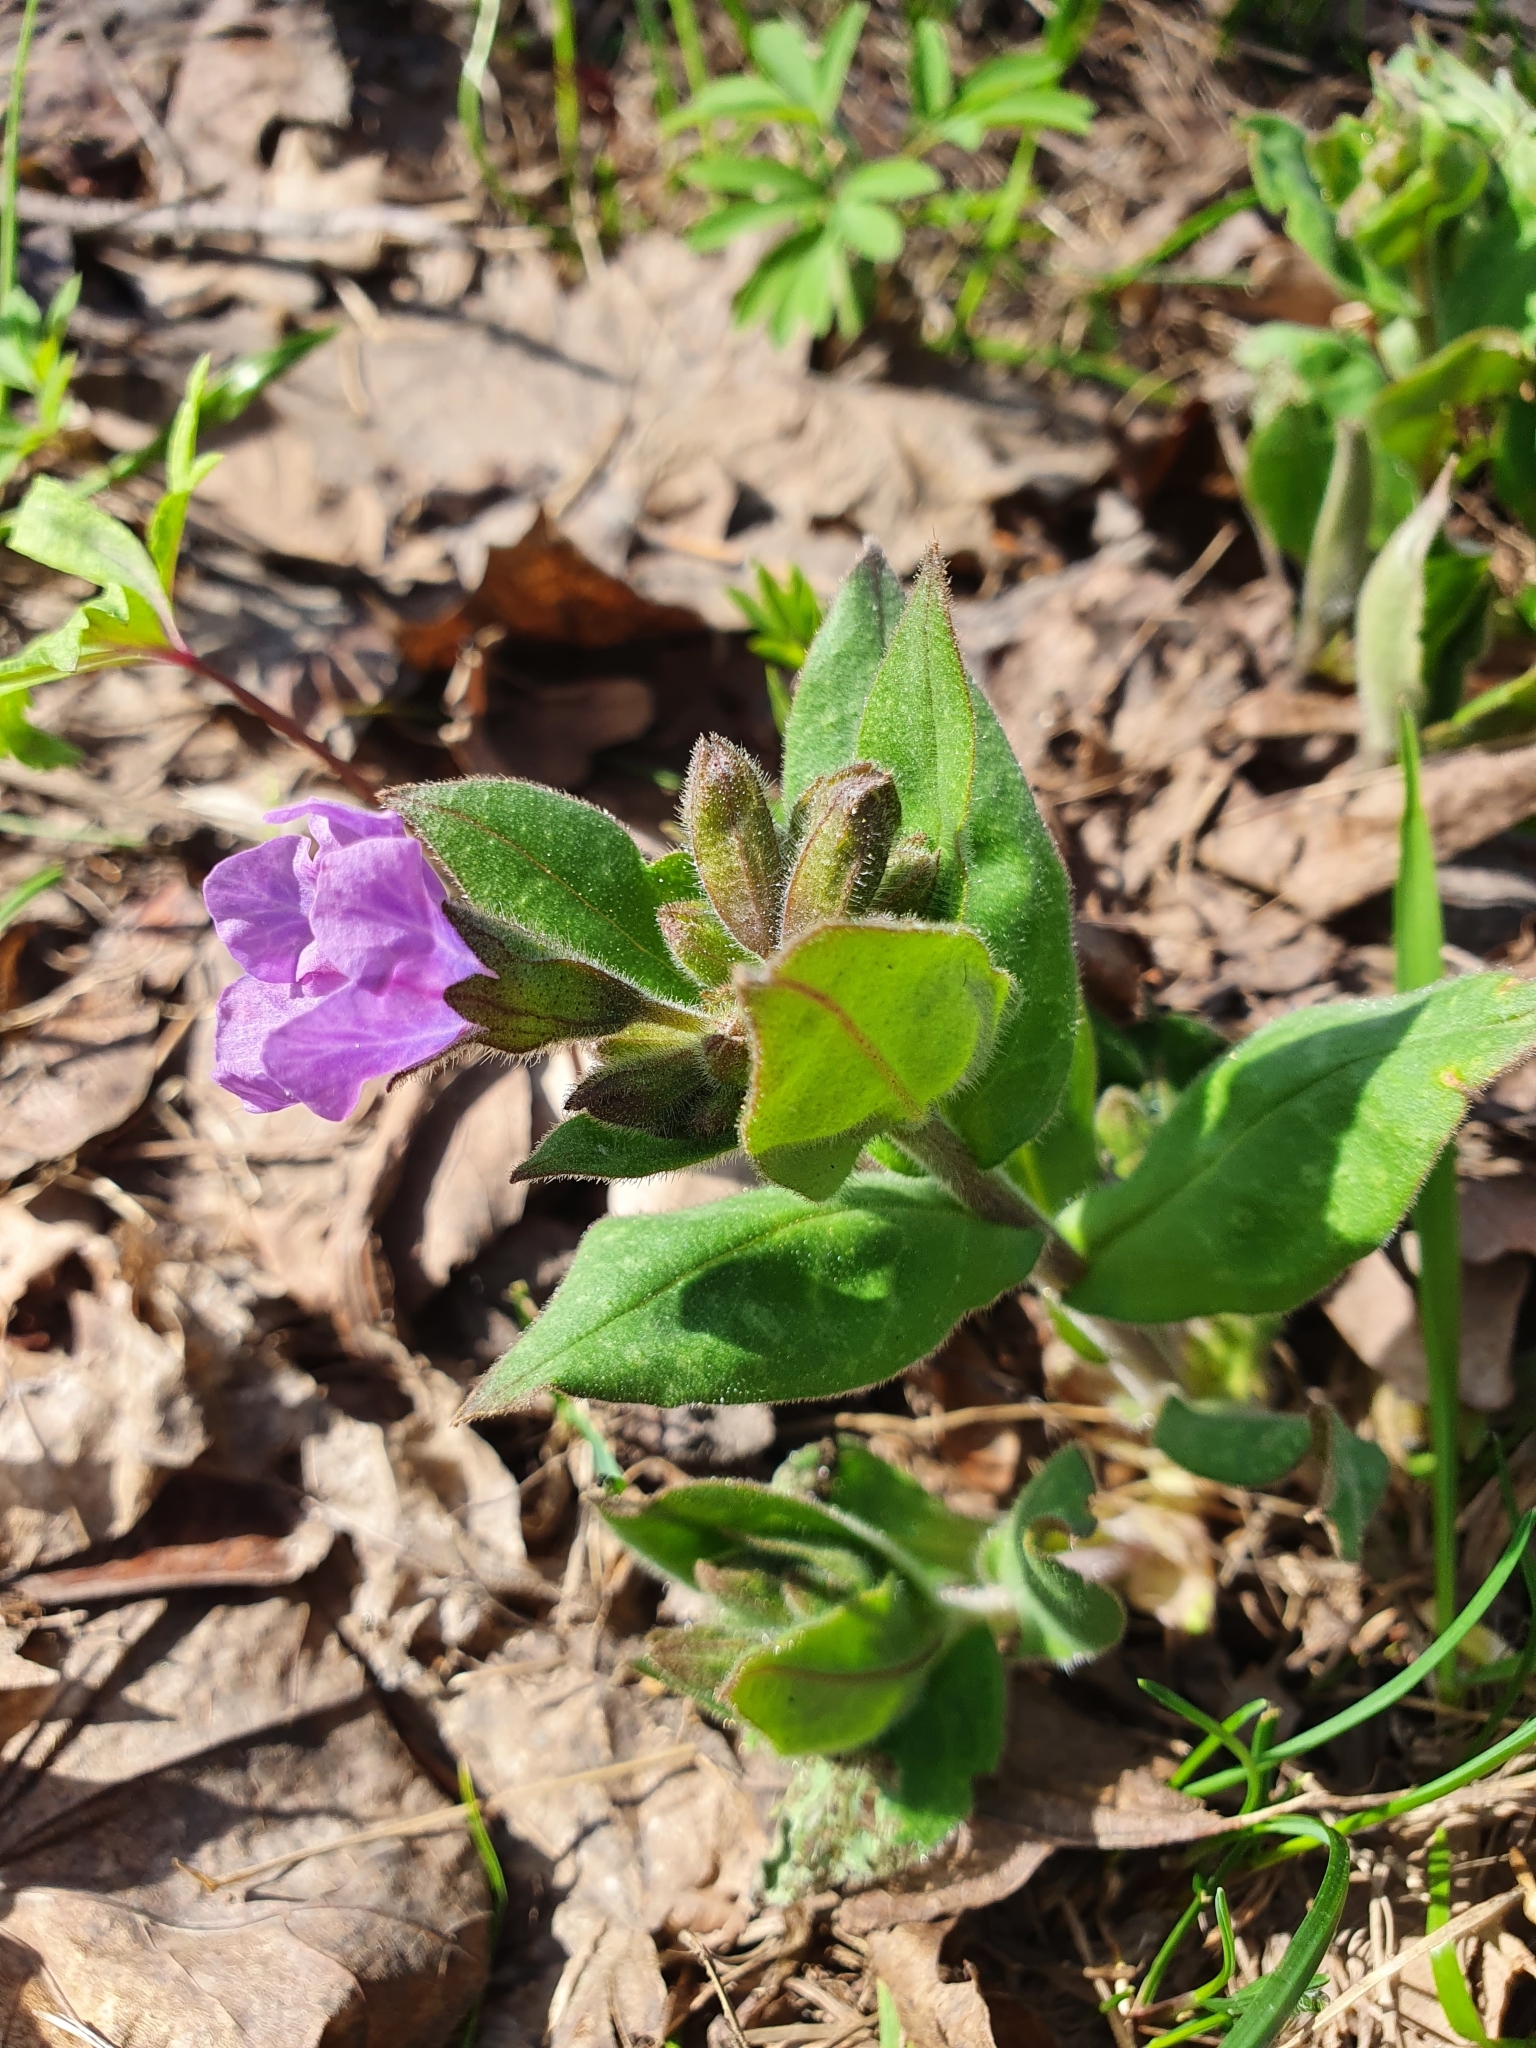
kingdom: Plantae
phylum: Tracheophyta
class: Magnoliopsida
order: Boraginales
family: Boraginaceae
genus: Pulmonaria
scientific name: Pulmonaria obscura
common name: Suffolk lungwort
